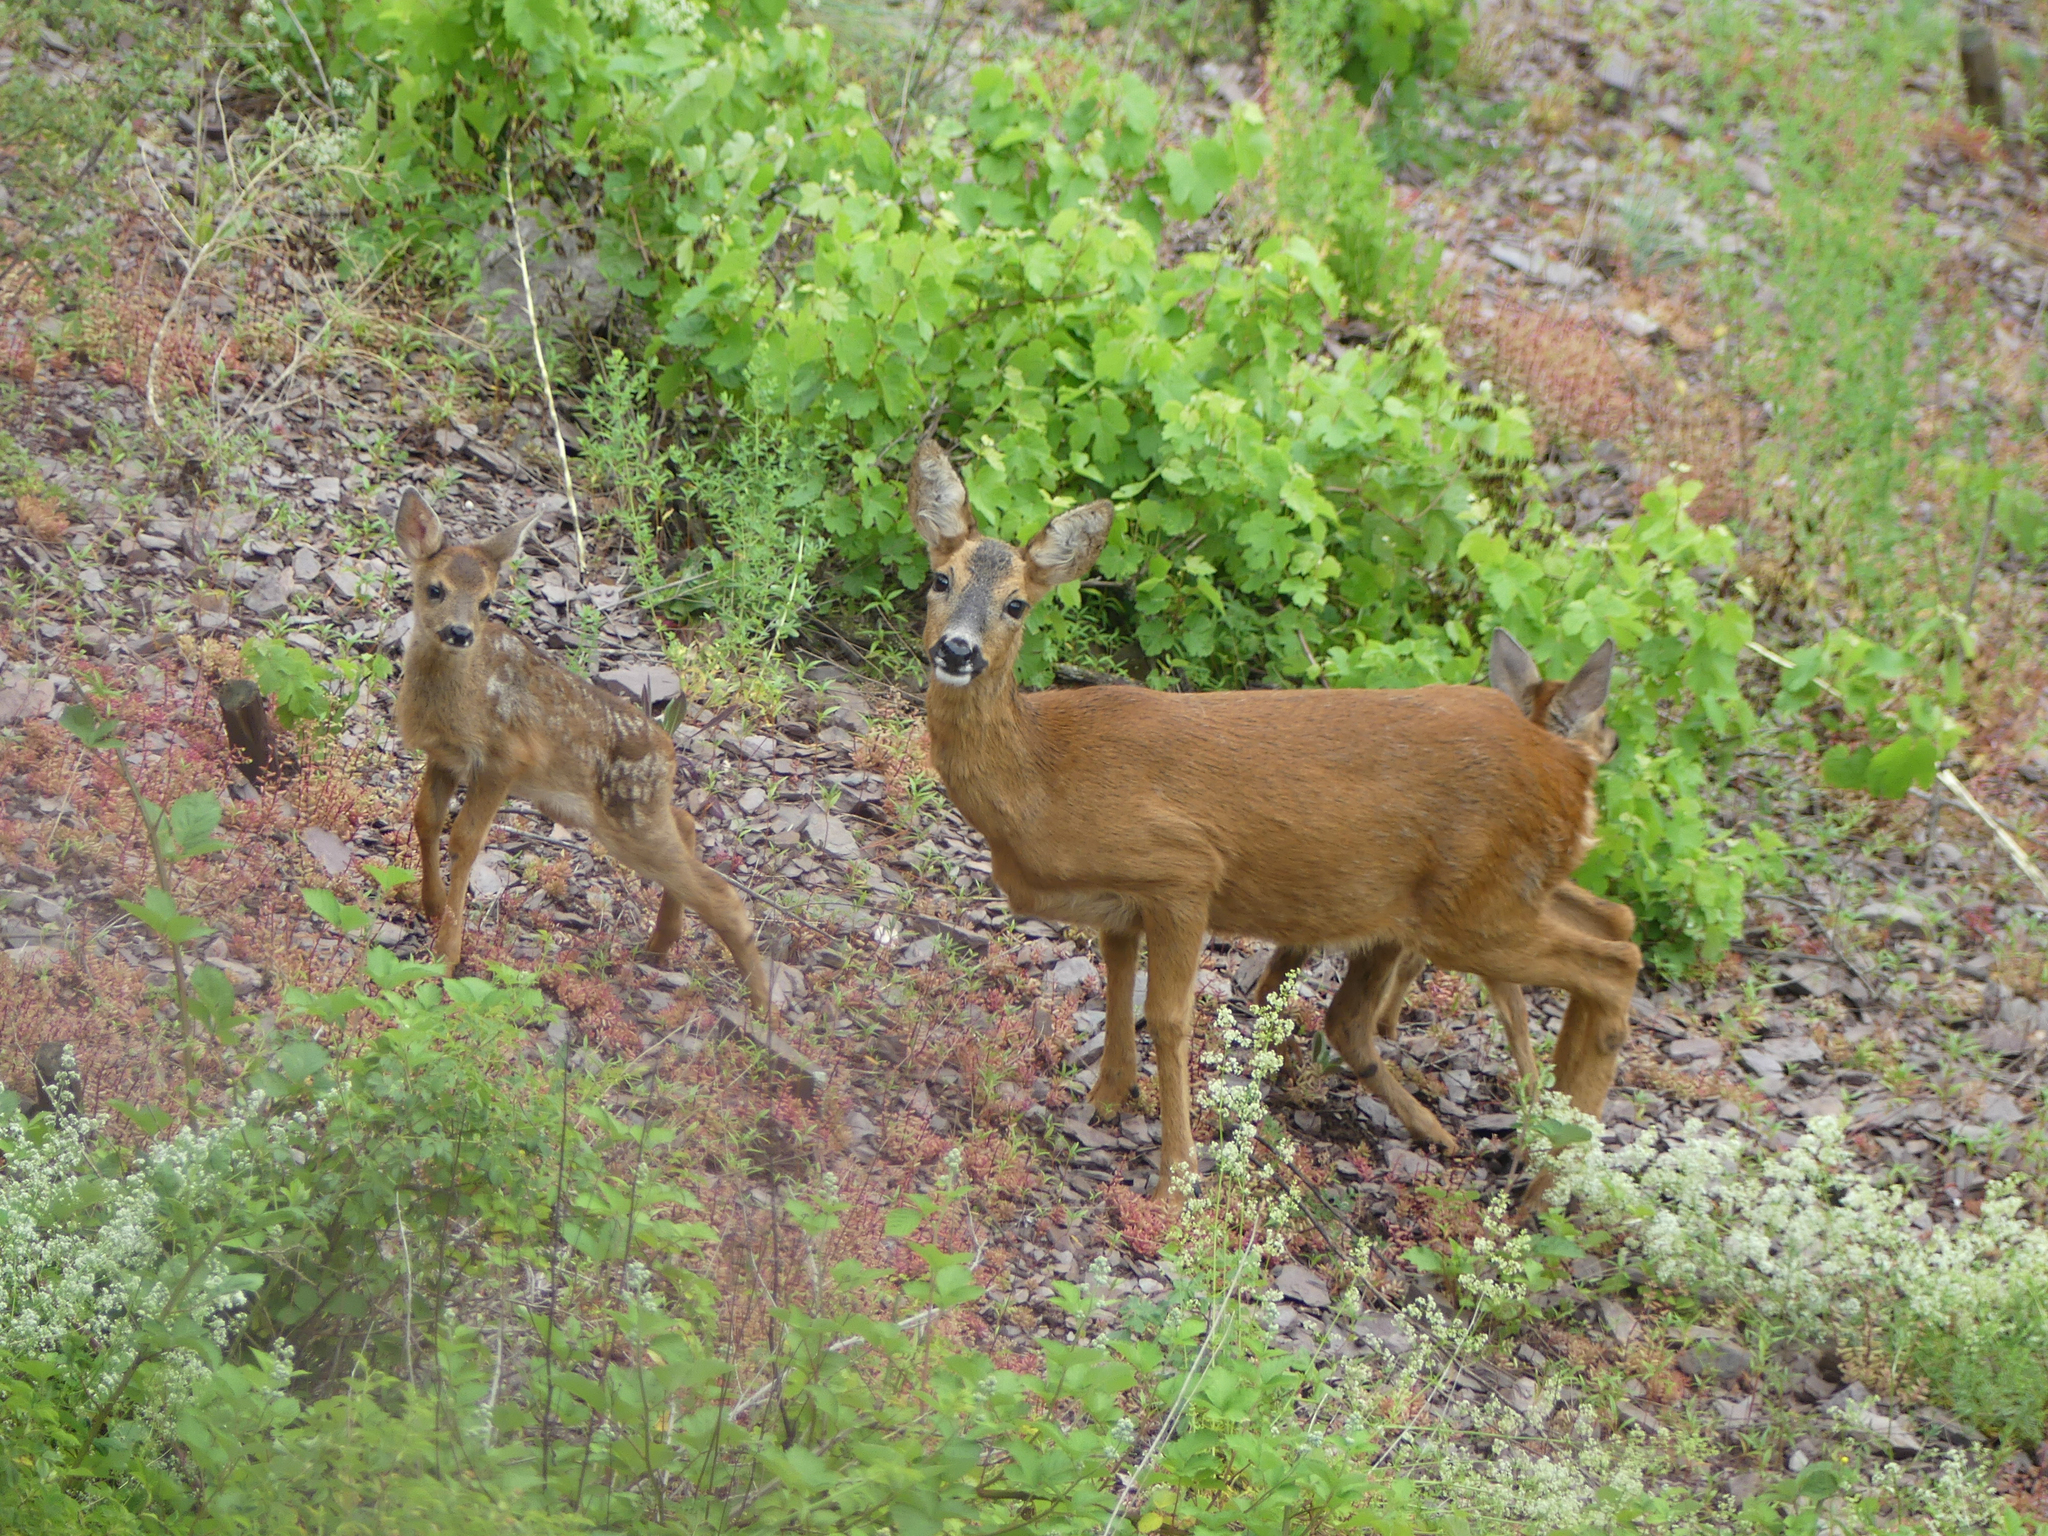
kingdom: Animalia
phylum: Chordata
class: Mammalia
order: Artiodactyla
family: Cervidae
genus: Capreolus
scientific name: Capreolus capreolus
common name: Western roe deer
